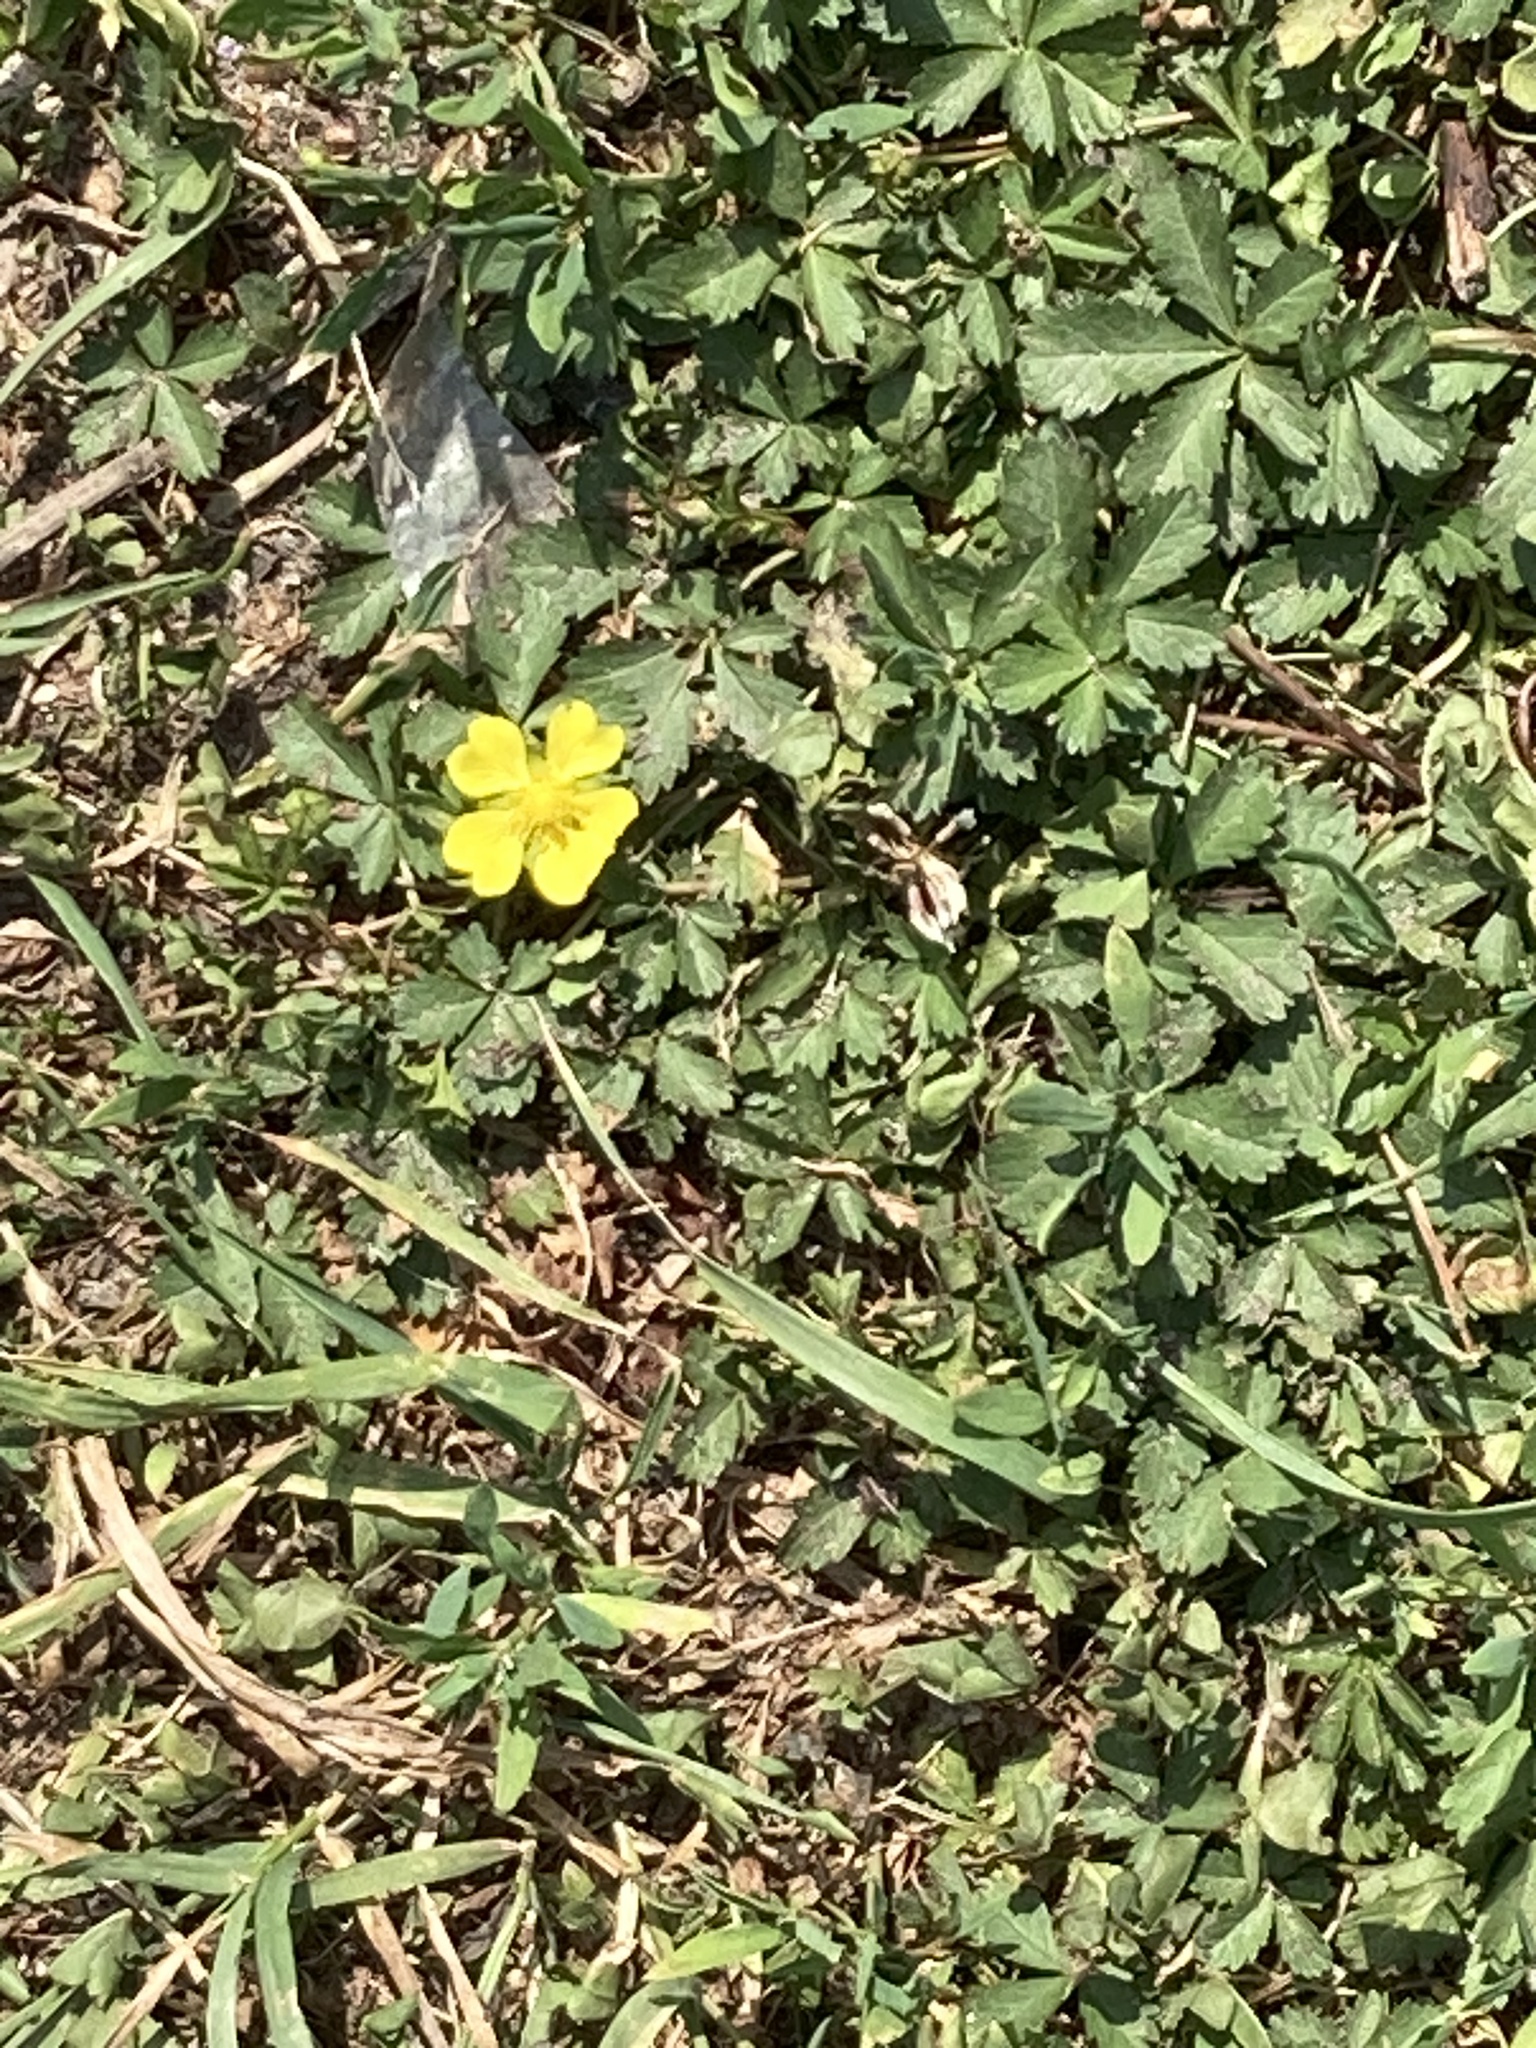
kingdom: Plantae
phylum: Tracheophyta
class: Magnoliopsida
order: Rosales
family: Rosaceae
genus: Potentilla
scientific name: Potentilla reptans
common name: Creeping cinquefoil
